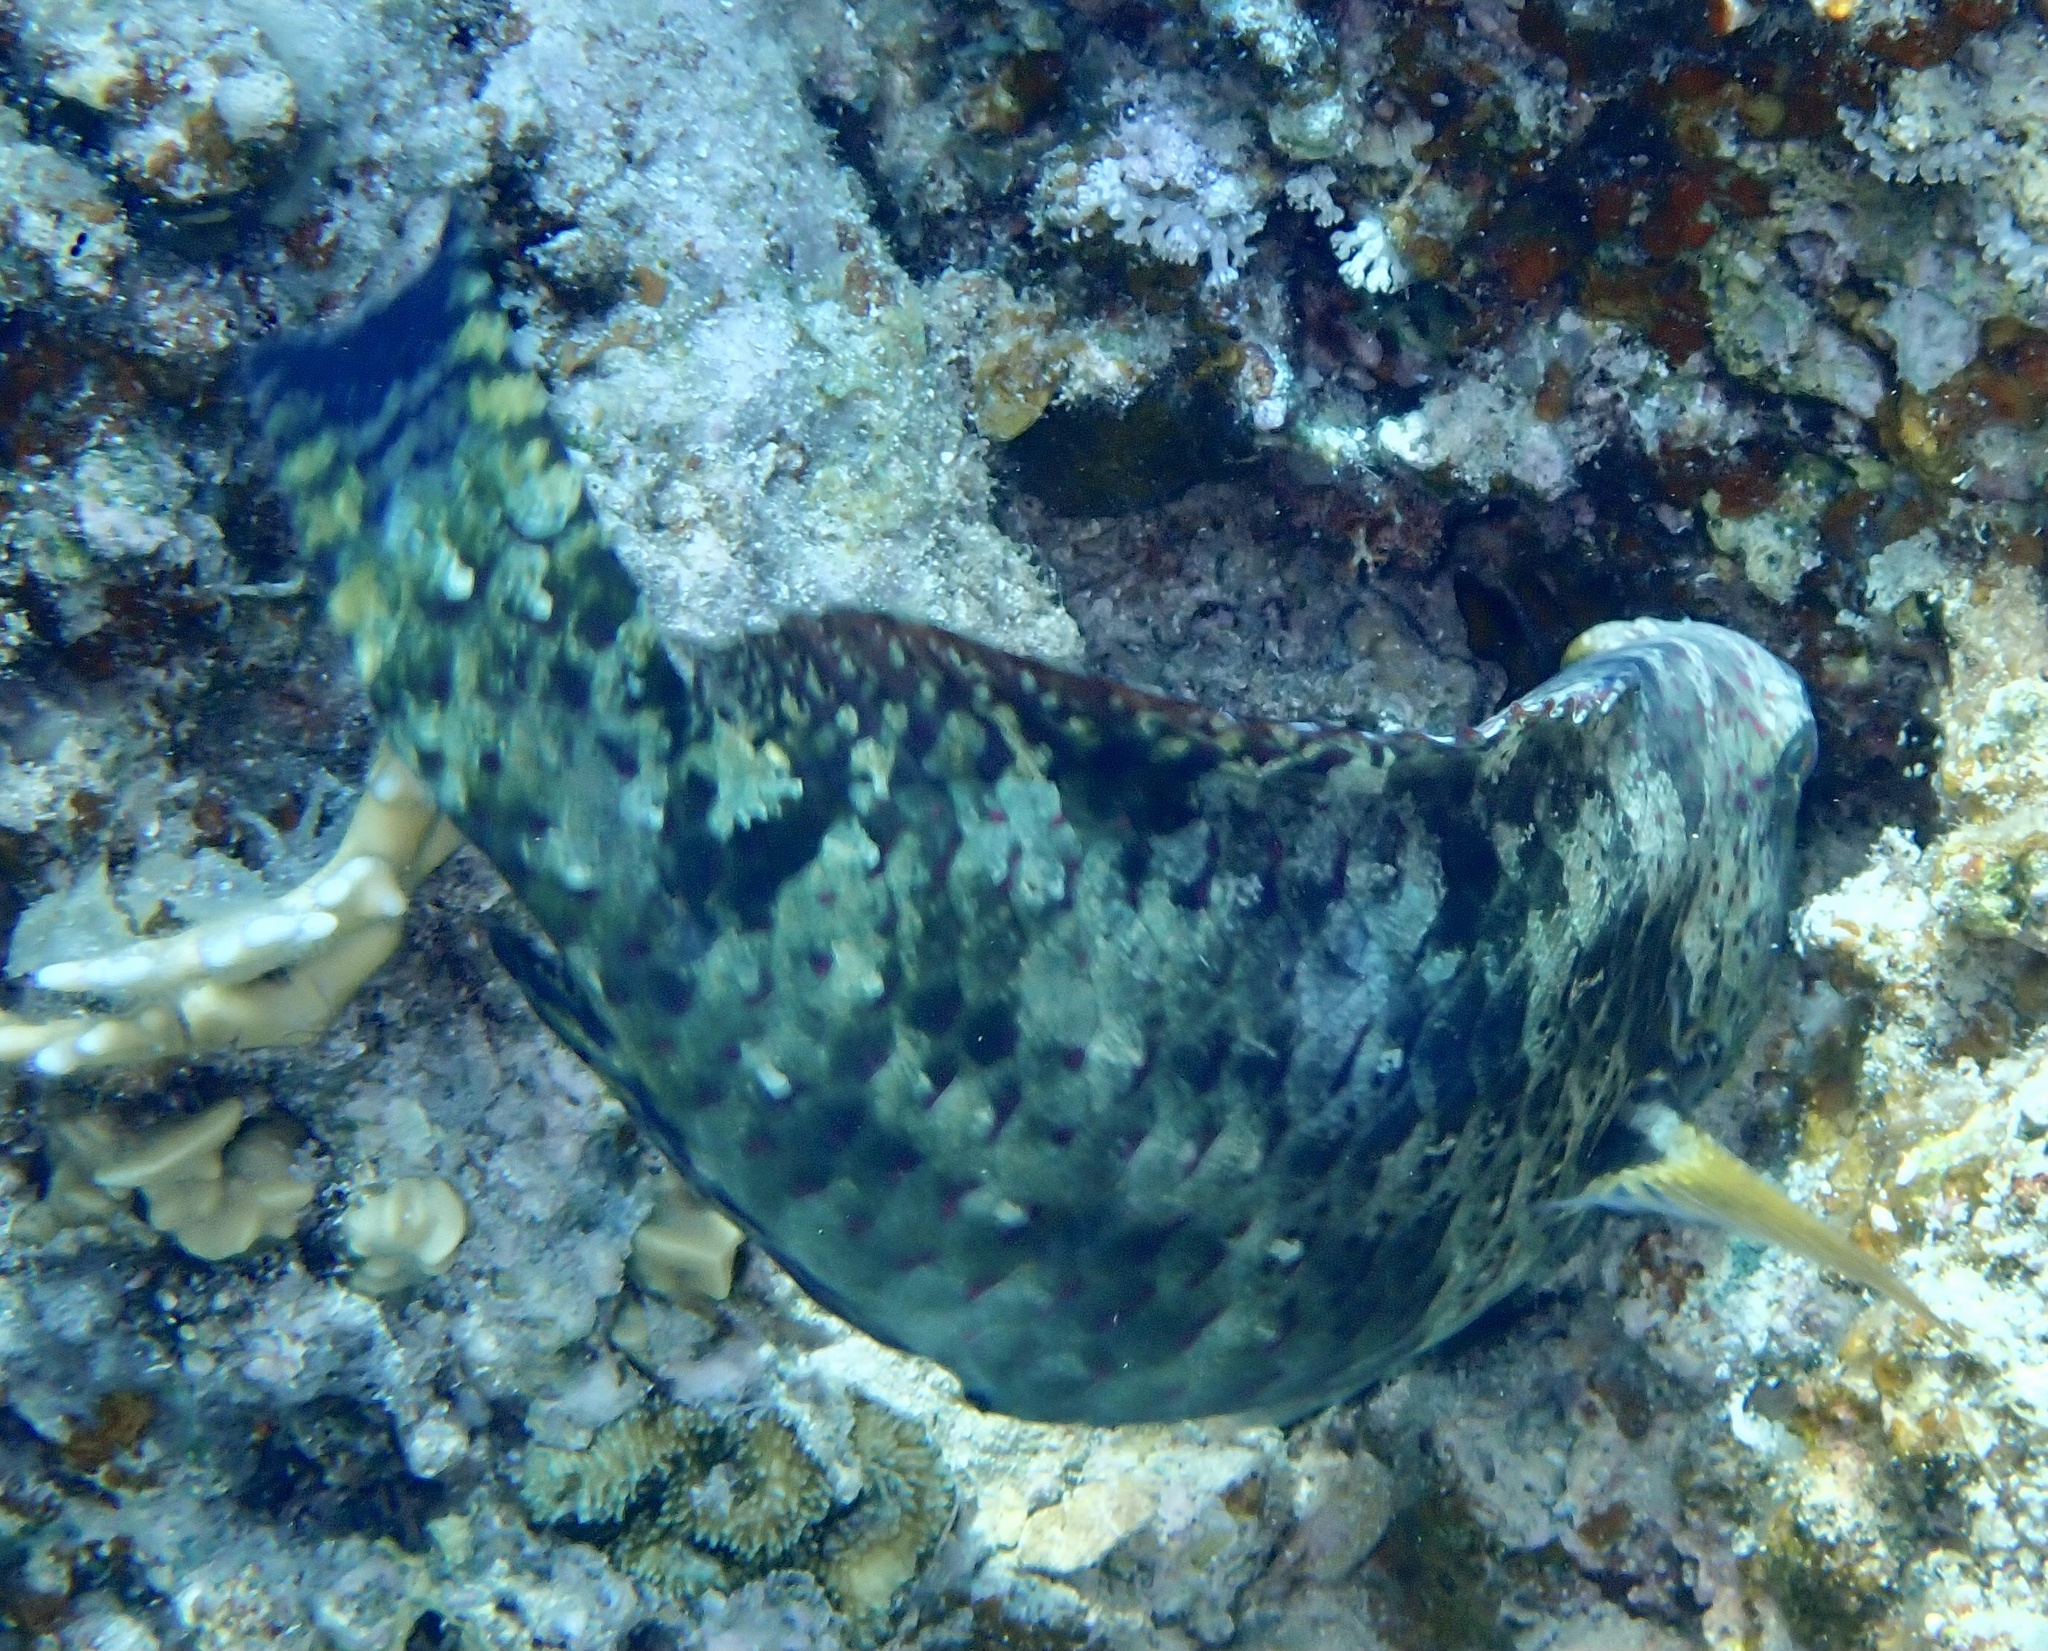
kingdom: Animalia
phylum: Chordata
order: Perciformes
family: Scaridae
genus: Calotomus
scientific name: Calotomus viridescens
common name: Dotted parrotfish
